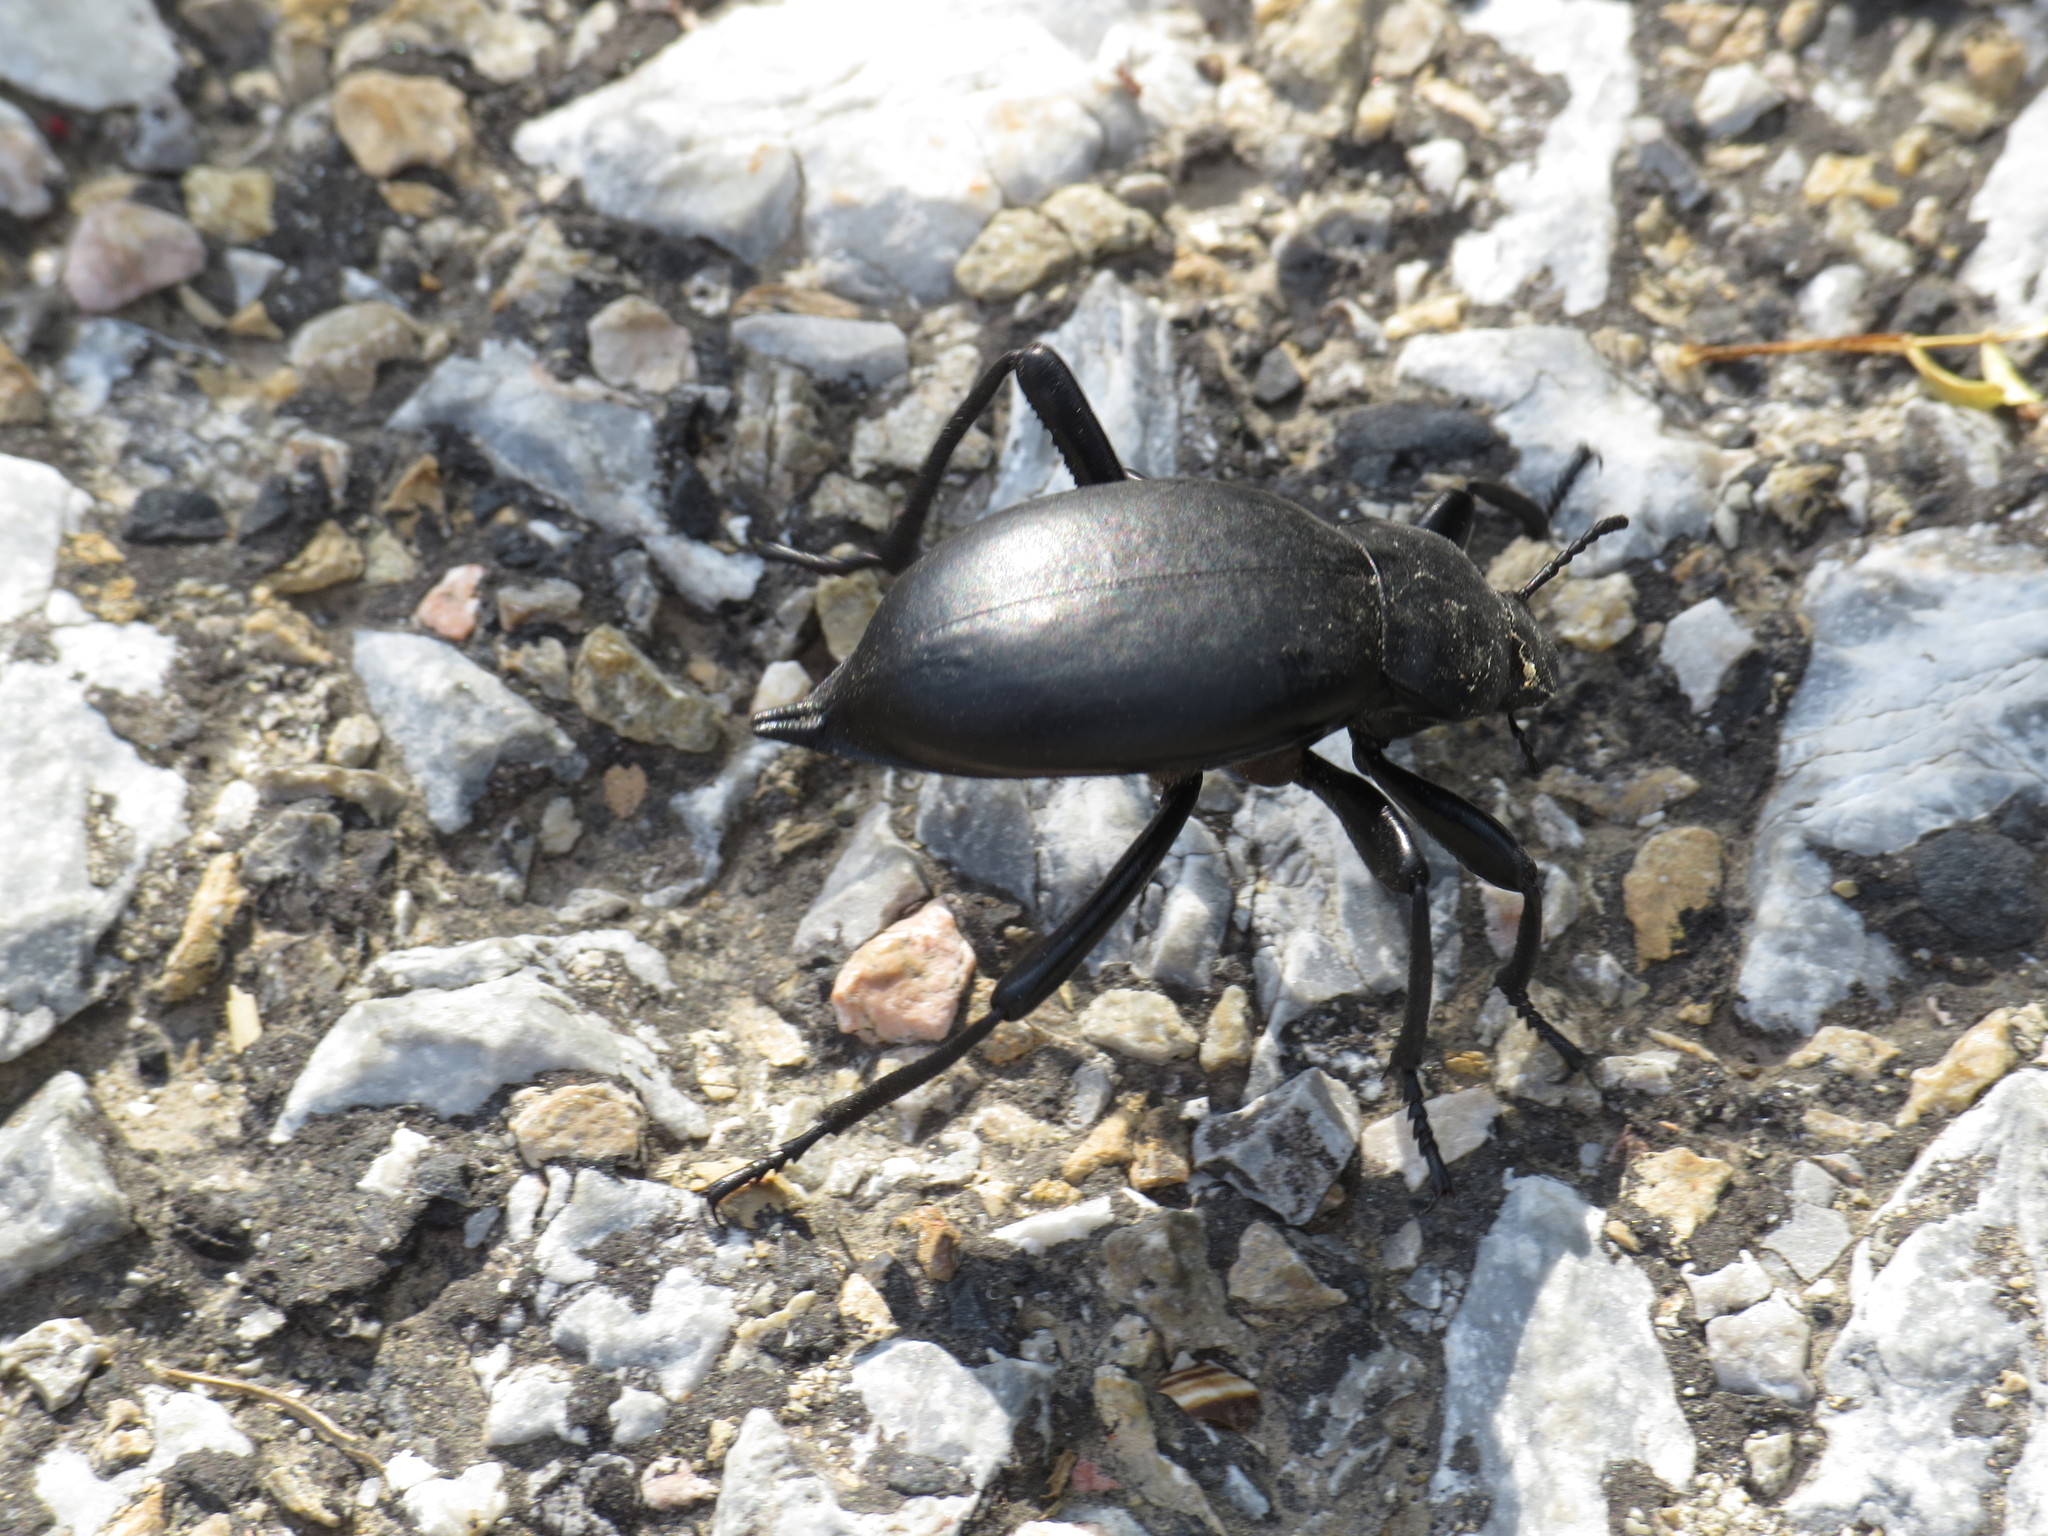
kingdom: Animalia
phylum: Arthropoda
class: Insecta
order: Coleoptera
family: Tenebrionidae
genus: Blaps
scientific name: Blaps lusitanica
